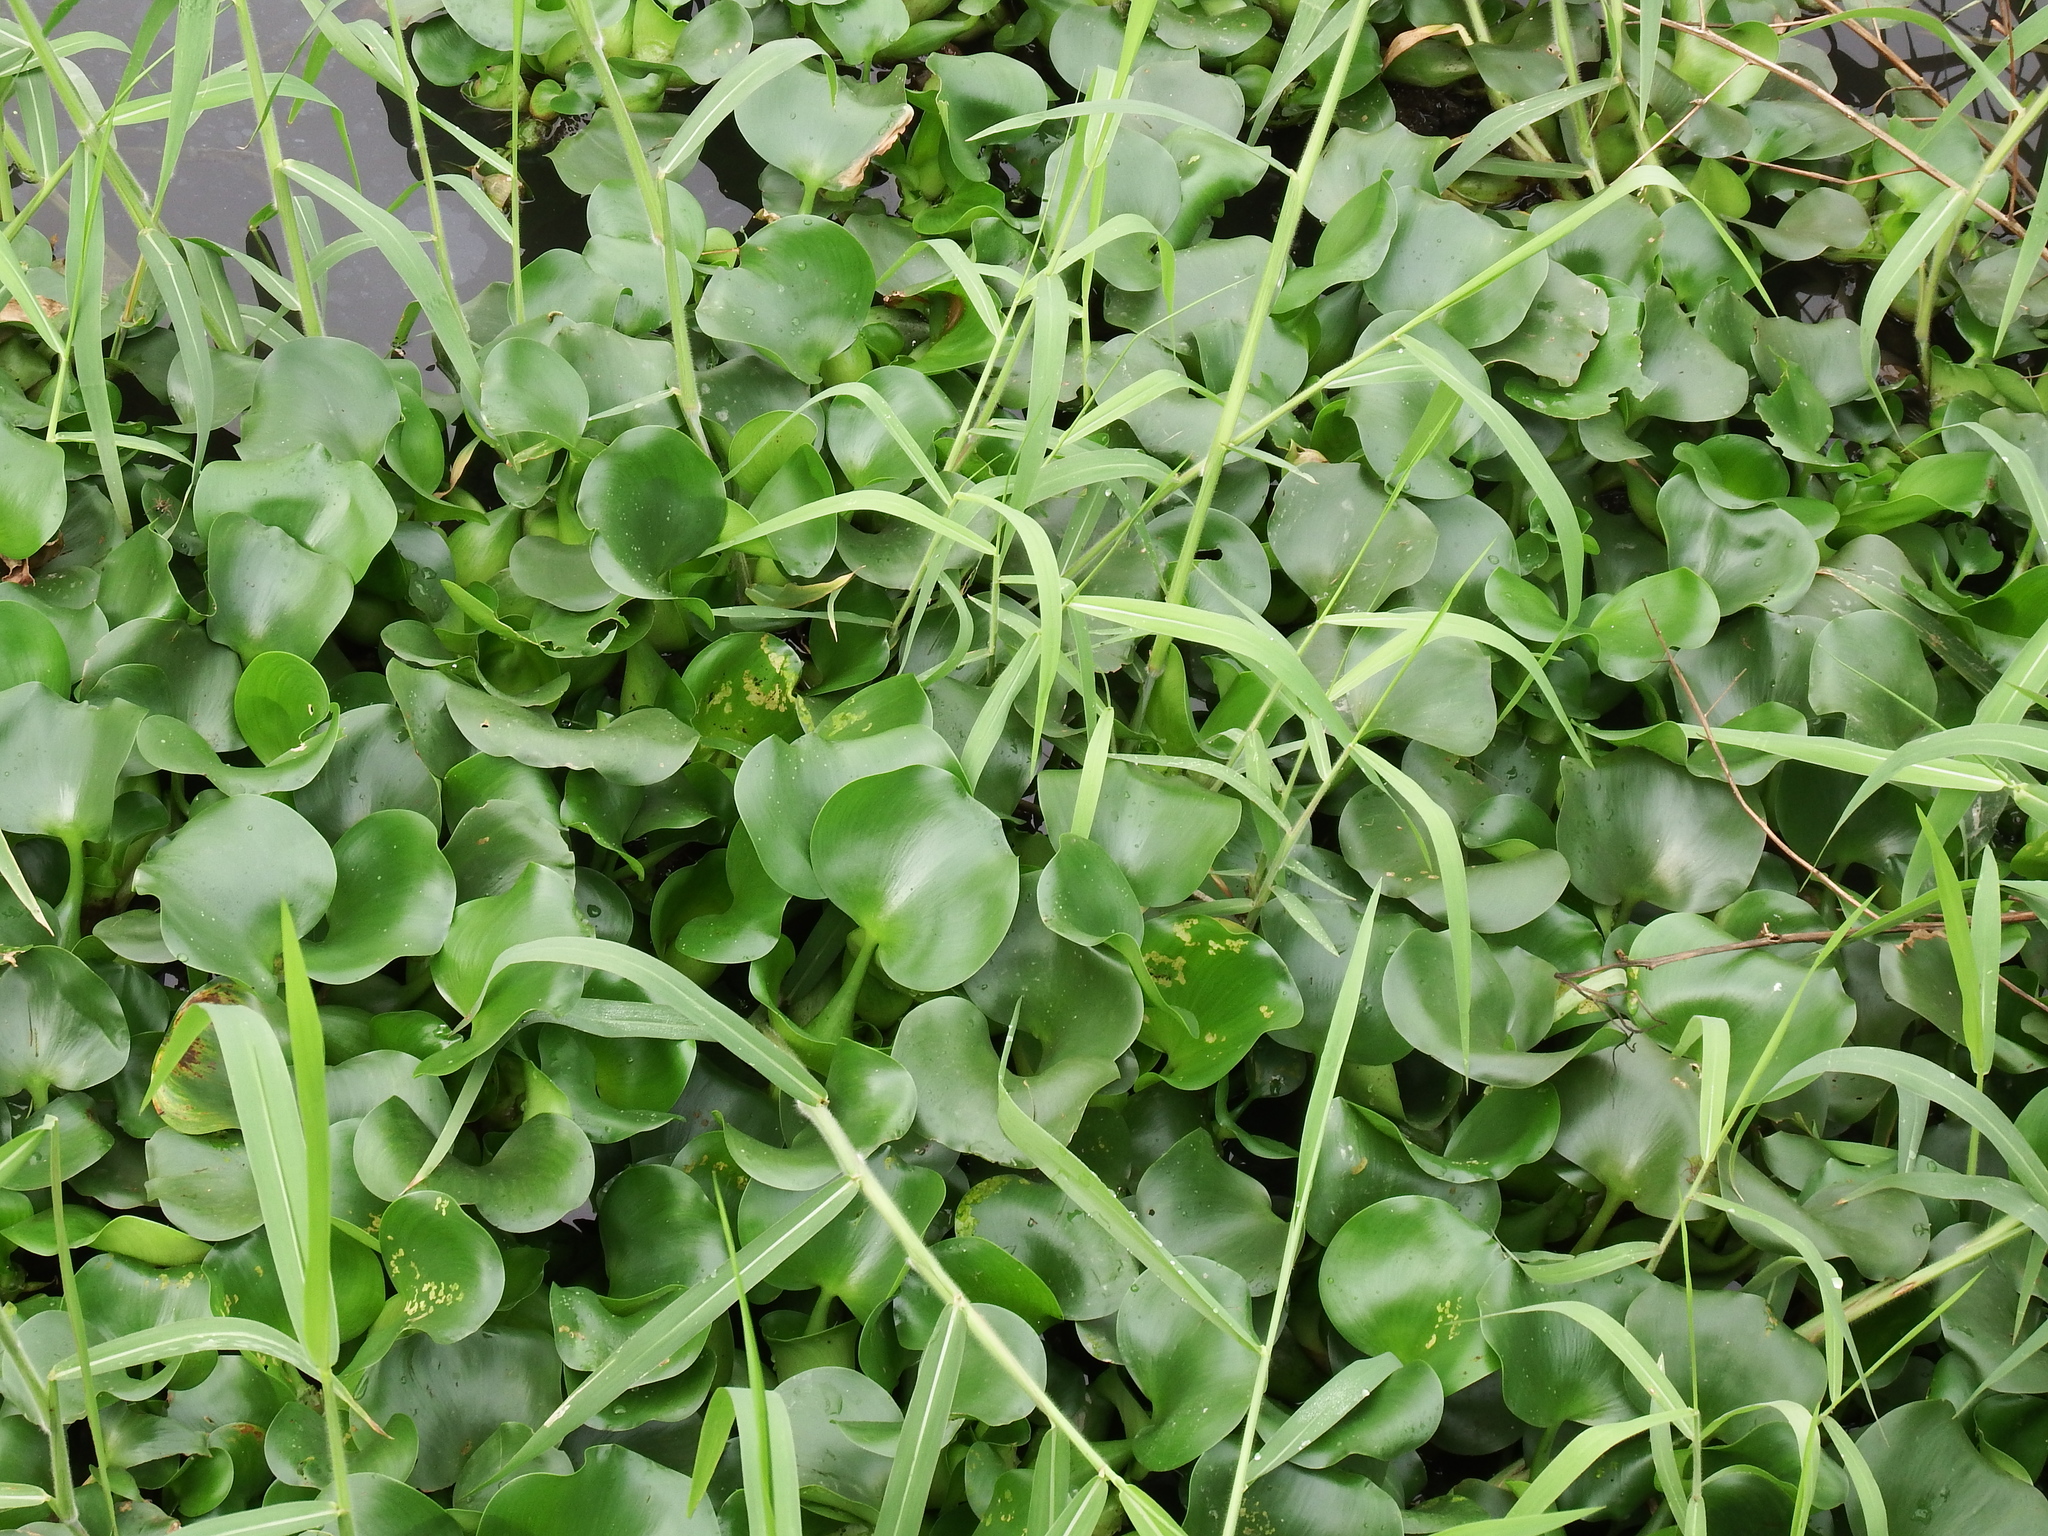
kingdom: Plantae
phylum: Tracheophyta
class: Liliopsida
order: Commelinales
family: Pontederiaceae
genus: Pontederia
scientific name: Pontederia crassipes
